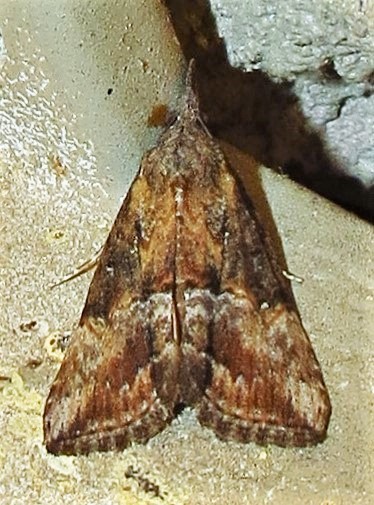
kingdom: Animalia
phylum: Arthropoda
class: Insecta
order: Lepidoptera
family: Erebidae
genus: Hypena
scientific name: Hypena scabra
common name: Green cloverworm
